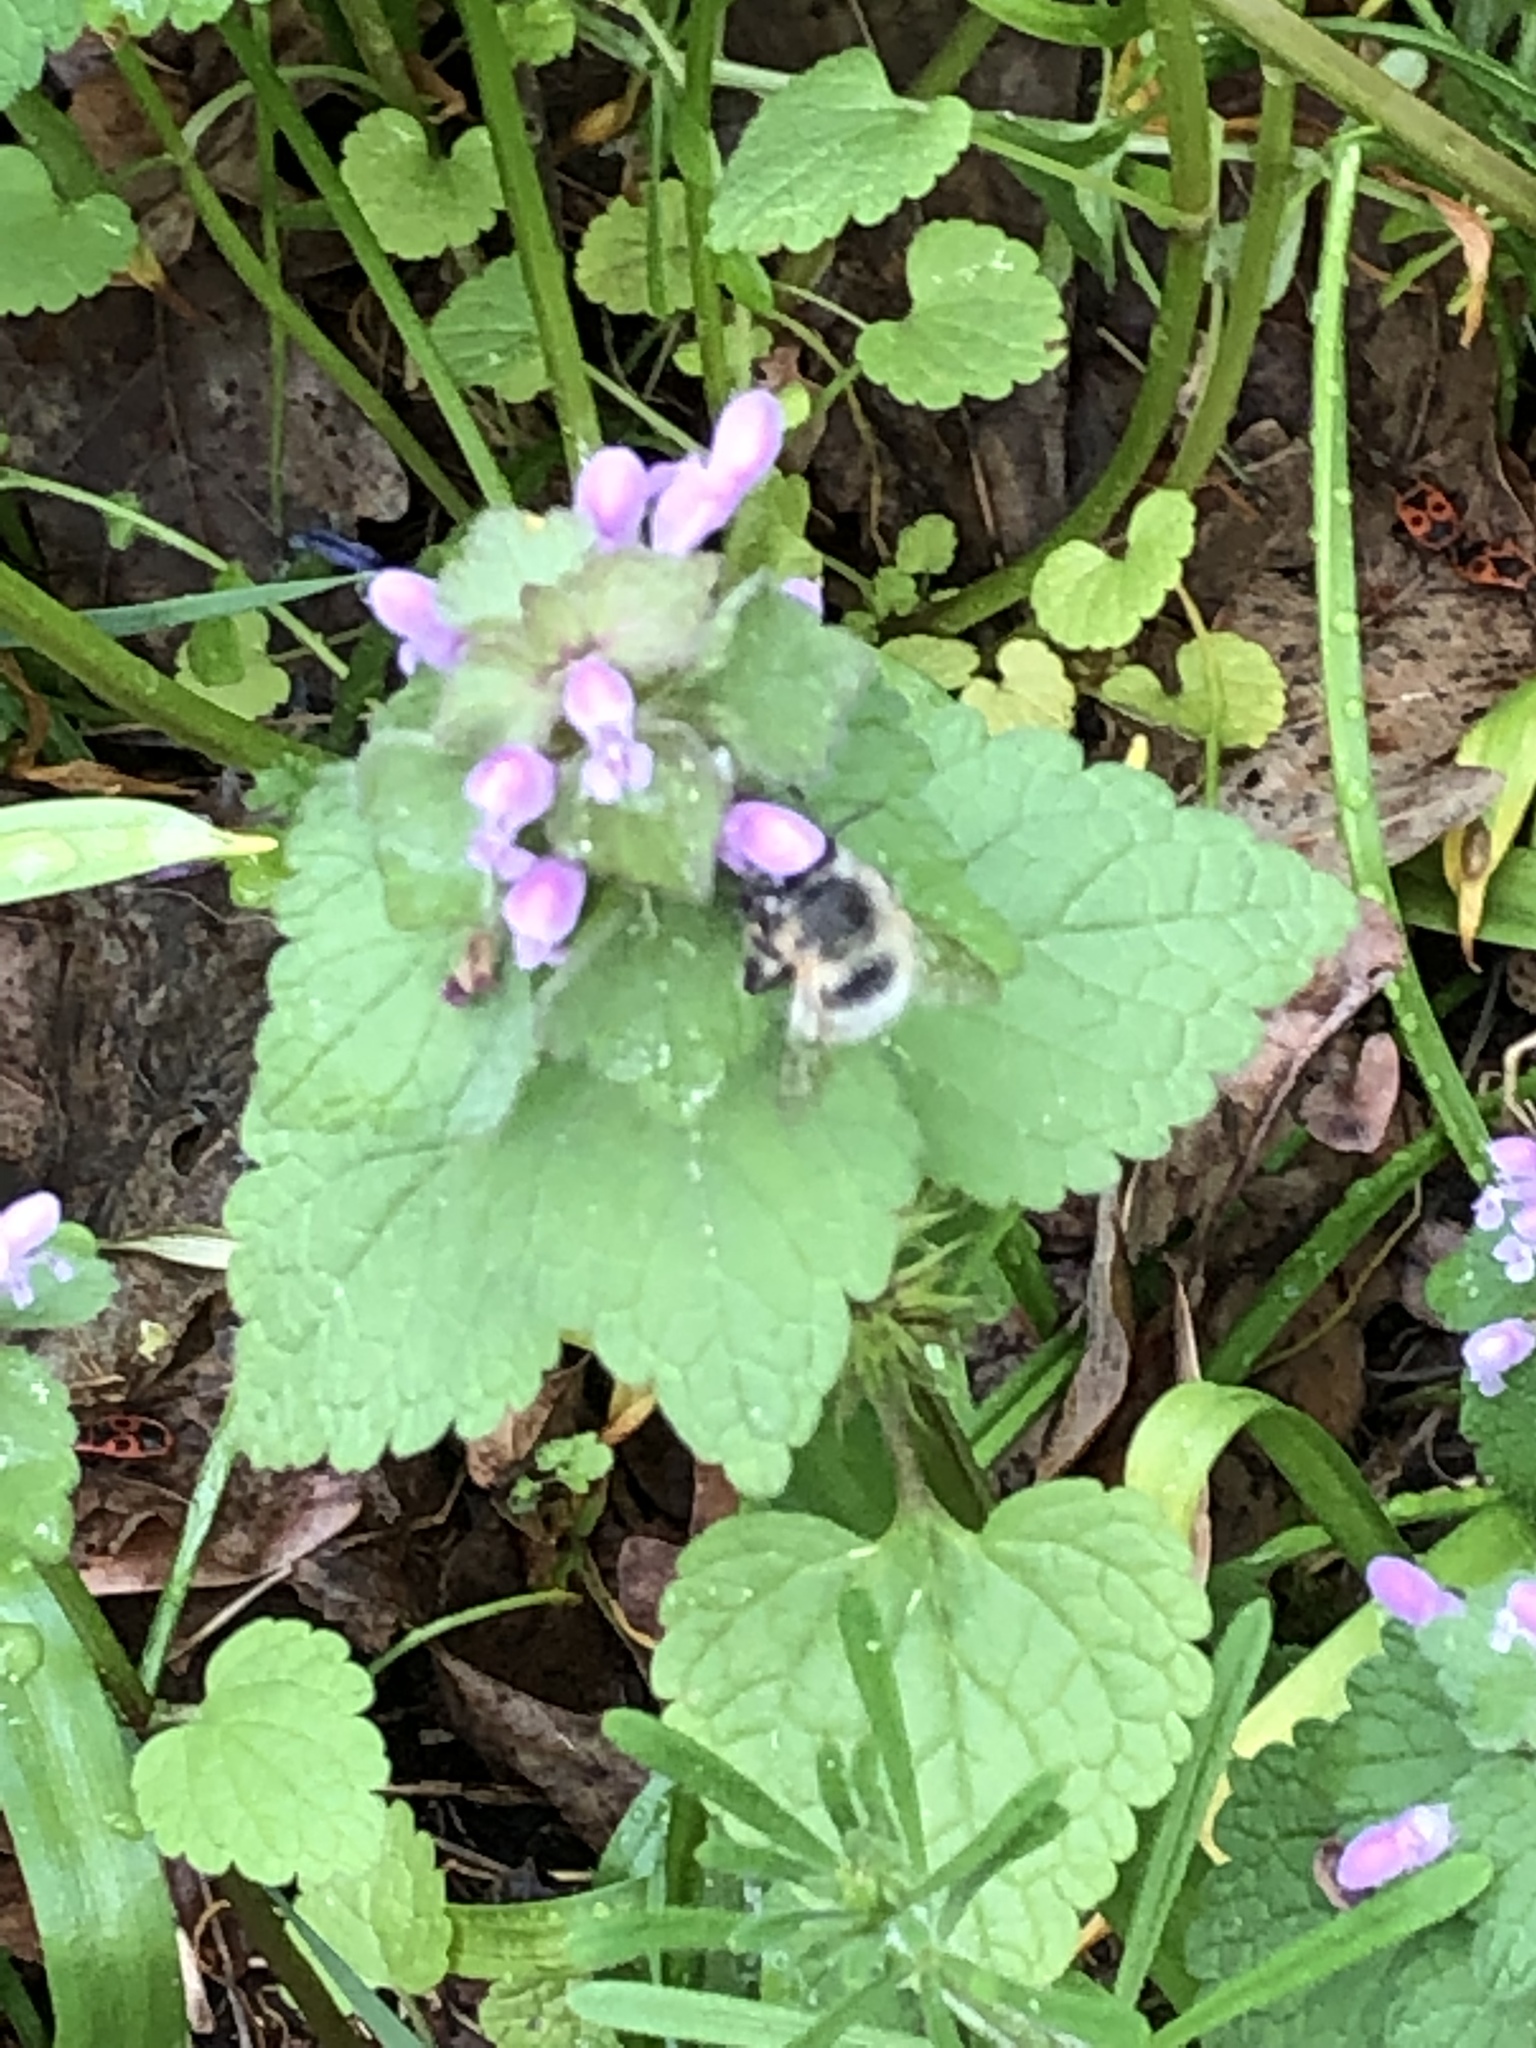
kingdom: Animalia
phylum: Arthropoda
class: Insecta
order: Hymenoptera
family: Apidae
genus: Anthophora
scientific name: Anthophora plumipes
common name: Hairy-footed flower bee
